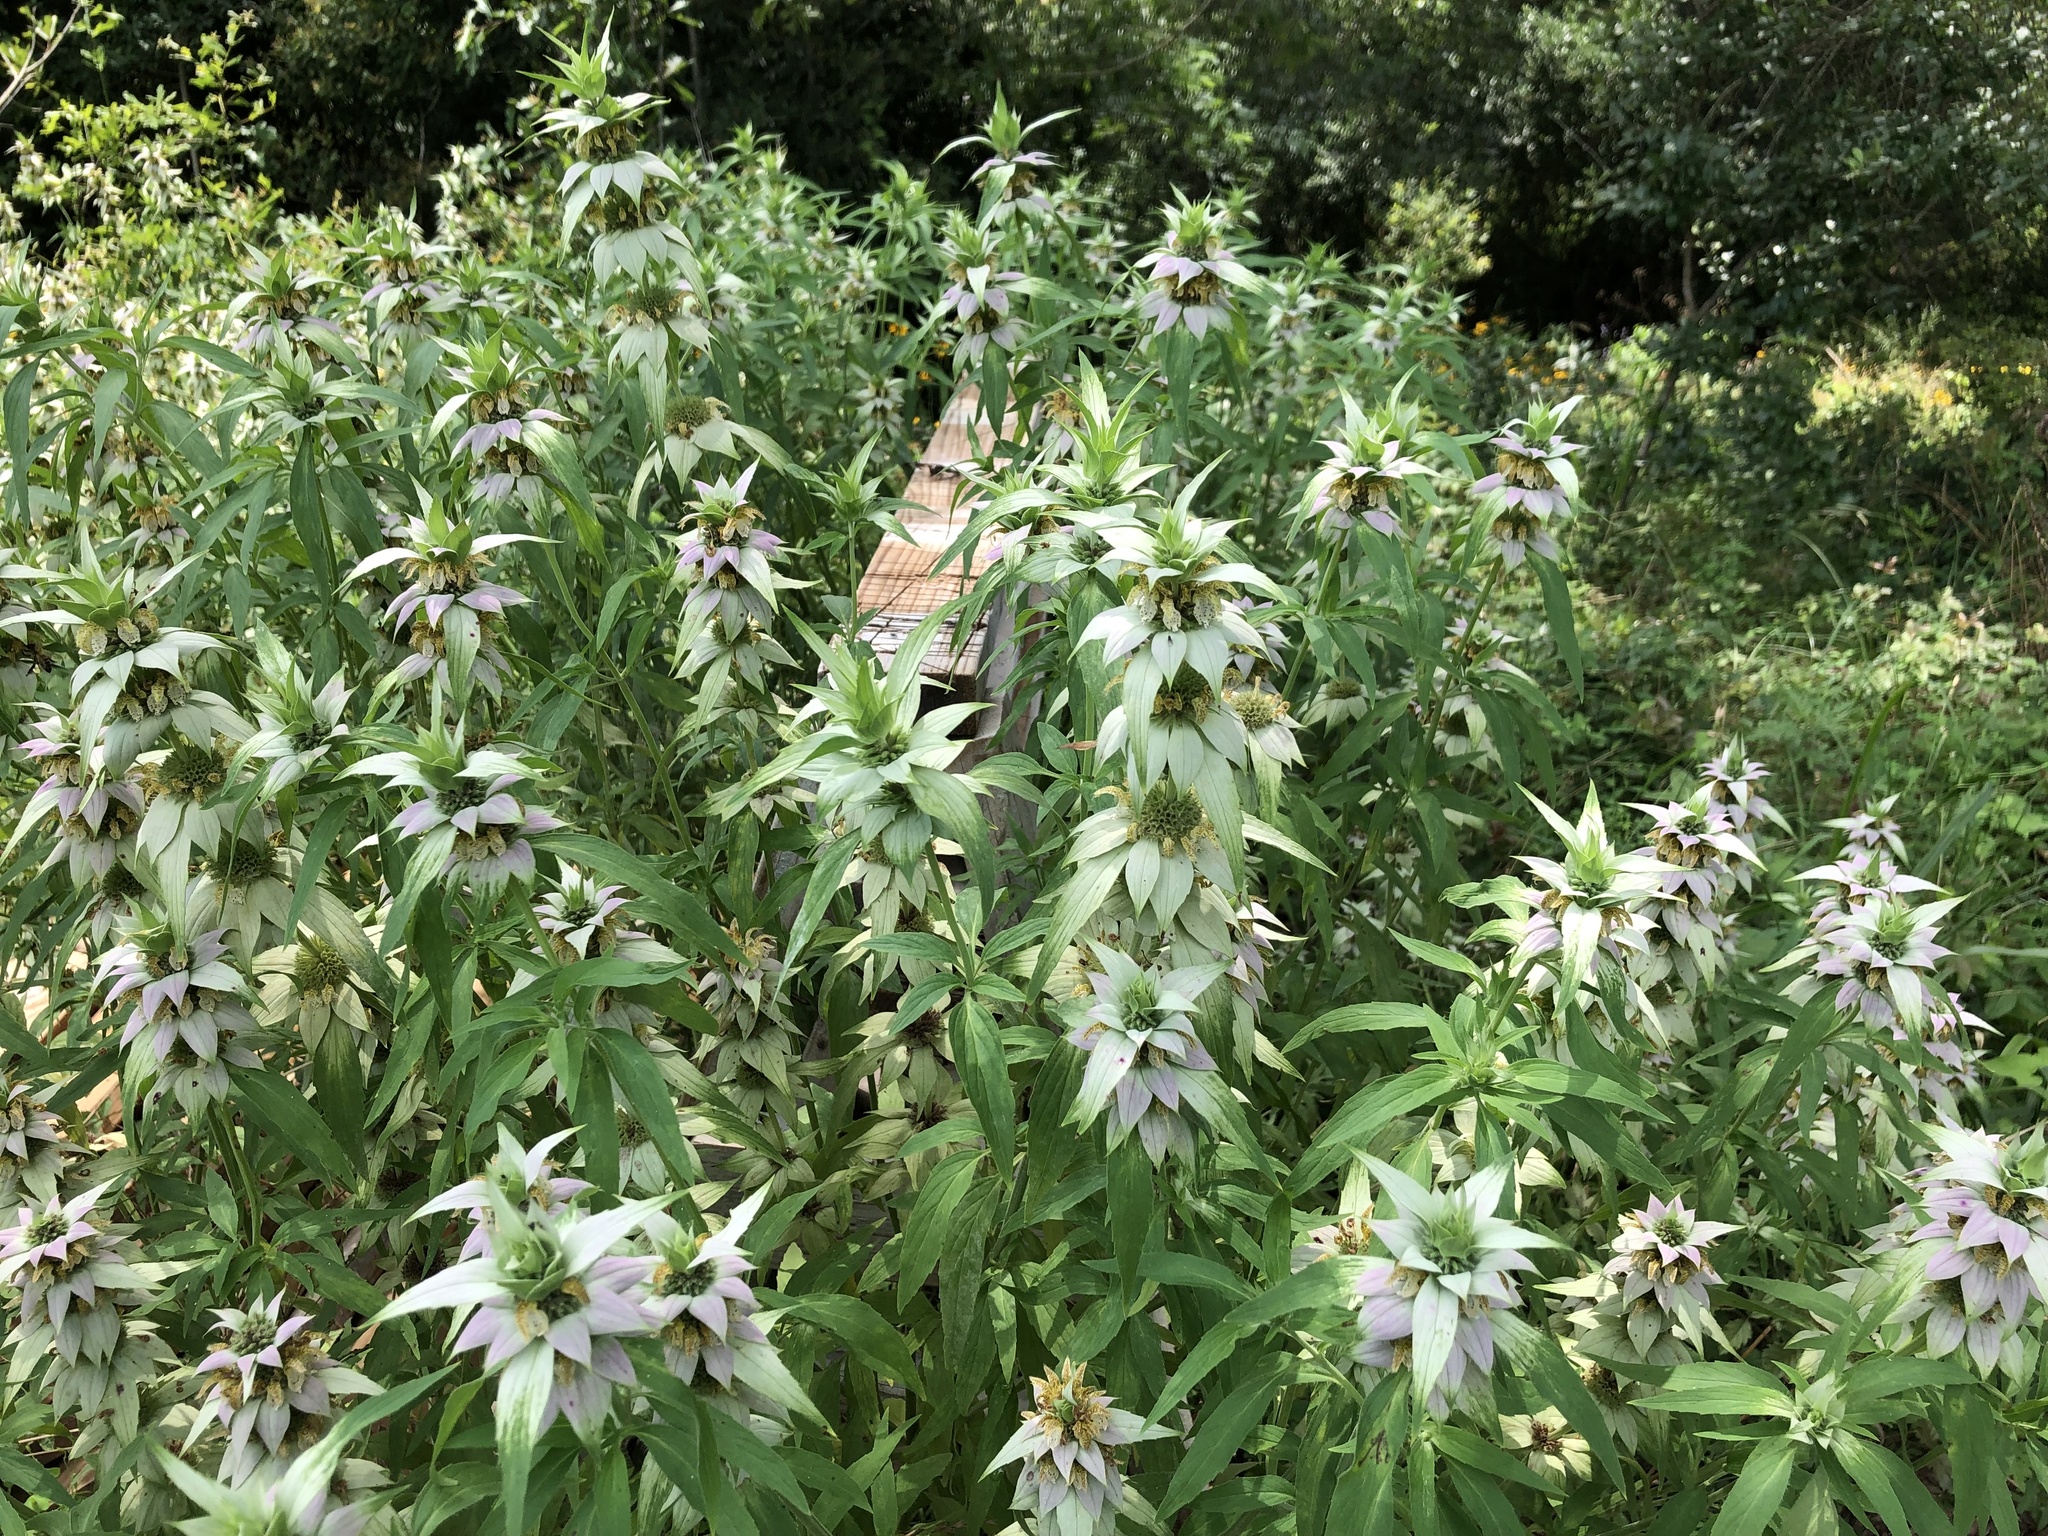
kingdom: Plantae
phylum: Tracheophyta
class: Magnoliopsida
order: Lamiales
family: Lamiaceae
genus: Monarda
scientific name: Monarda punctata
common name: Dotted monarda
